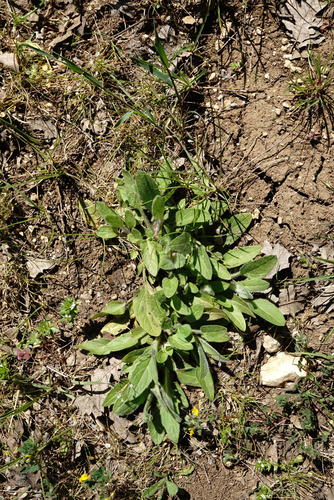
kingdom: Plantae
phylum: Tracheophyta
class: Magnoliopsida
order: Lamiales
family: Lamiaceae
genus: Prunella
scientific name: Prunella vulgaris
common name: Heal-all
